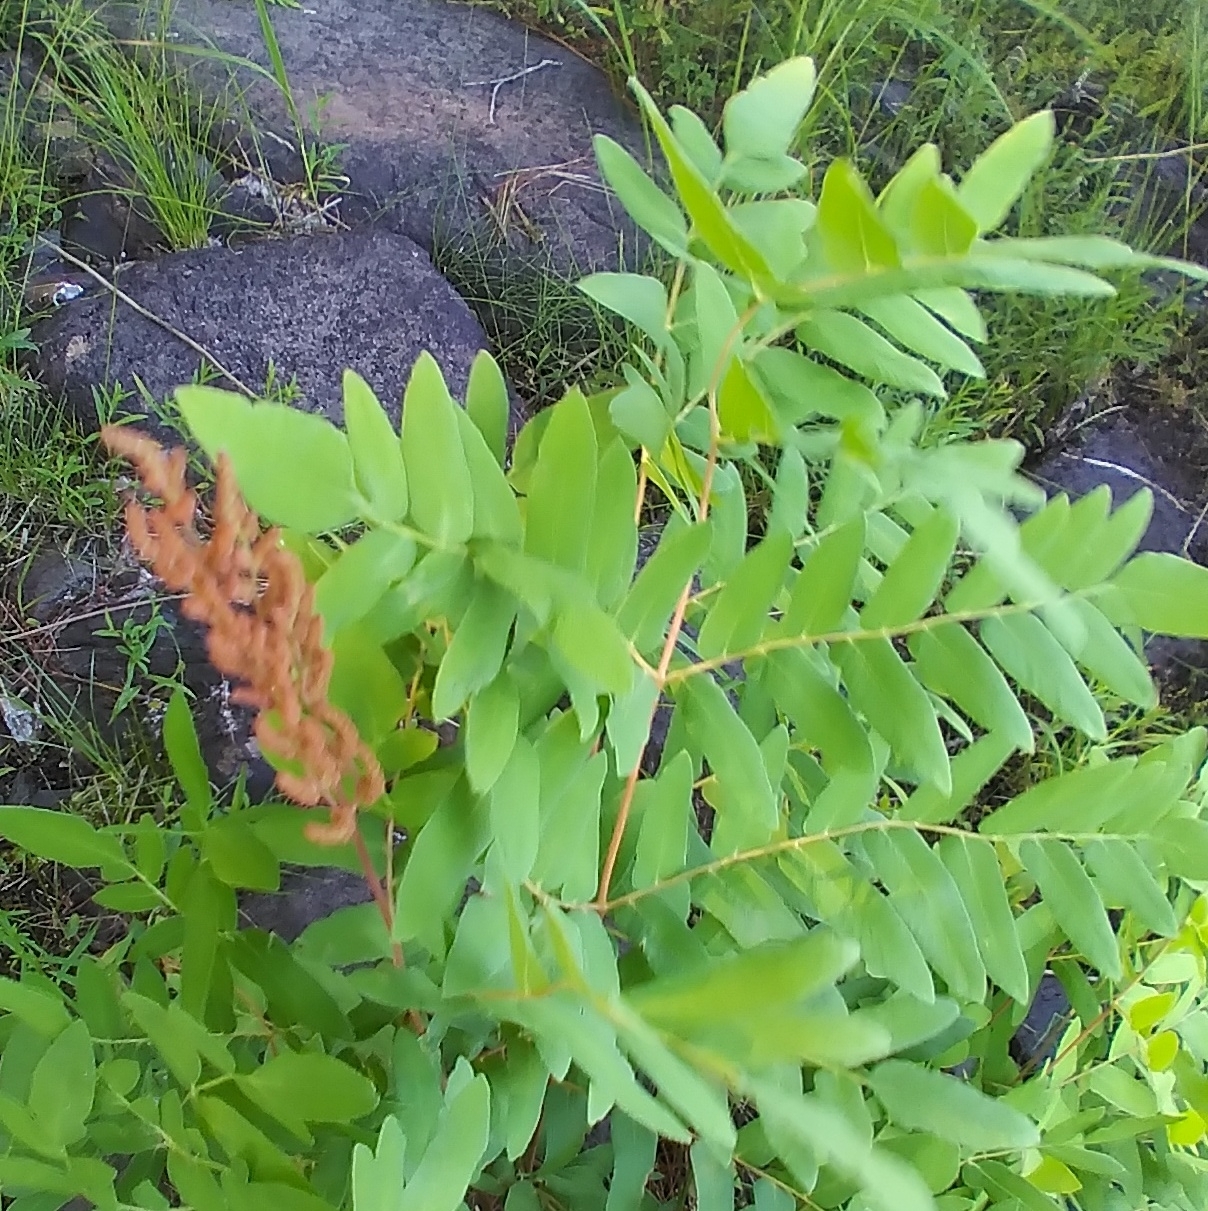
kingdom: Plantae
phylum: Tracheophyta
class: Polypodiopsida
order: Osmundales
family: Osmundaceae
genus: Osmunda
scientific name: Osmunda spectabilis
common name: American royal fern
